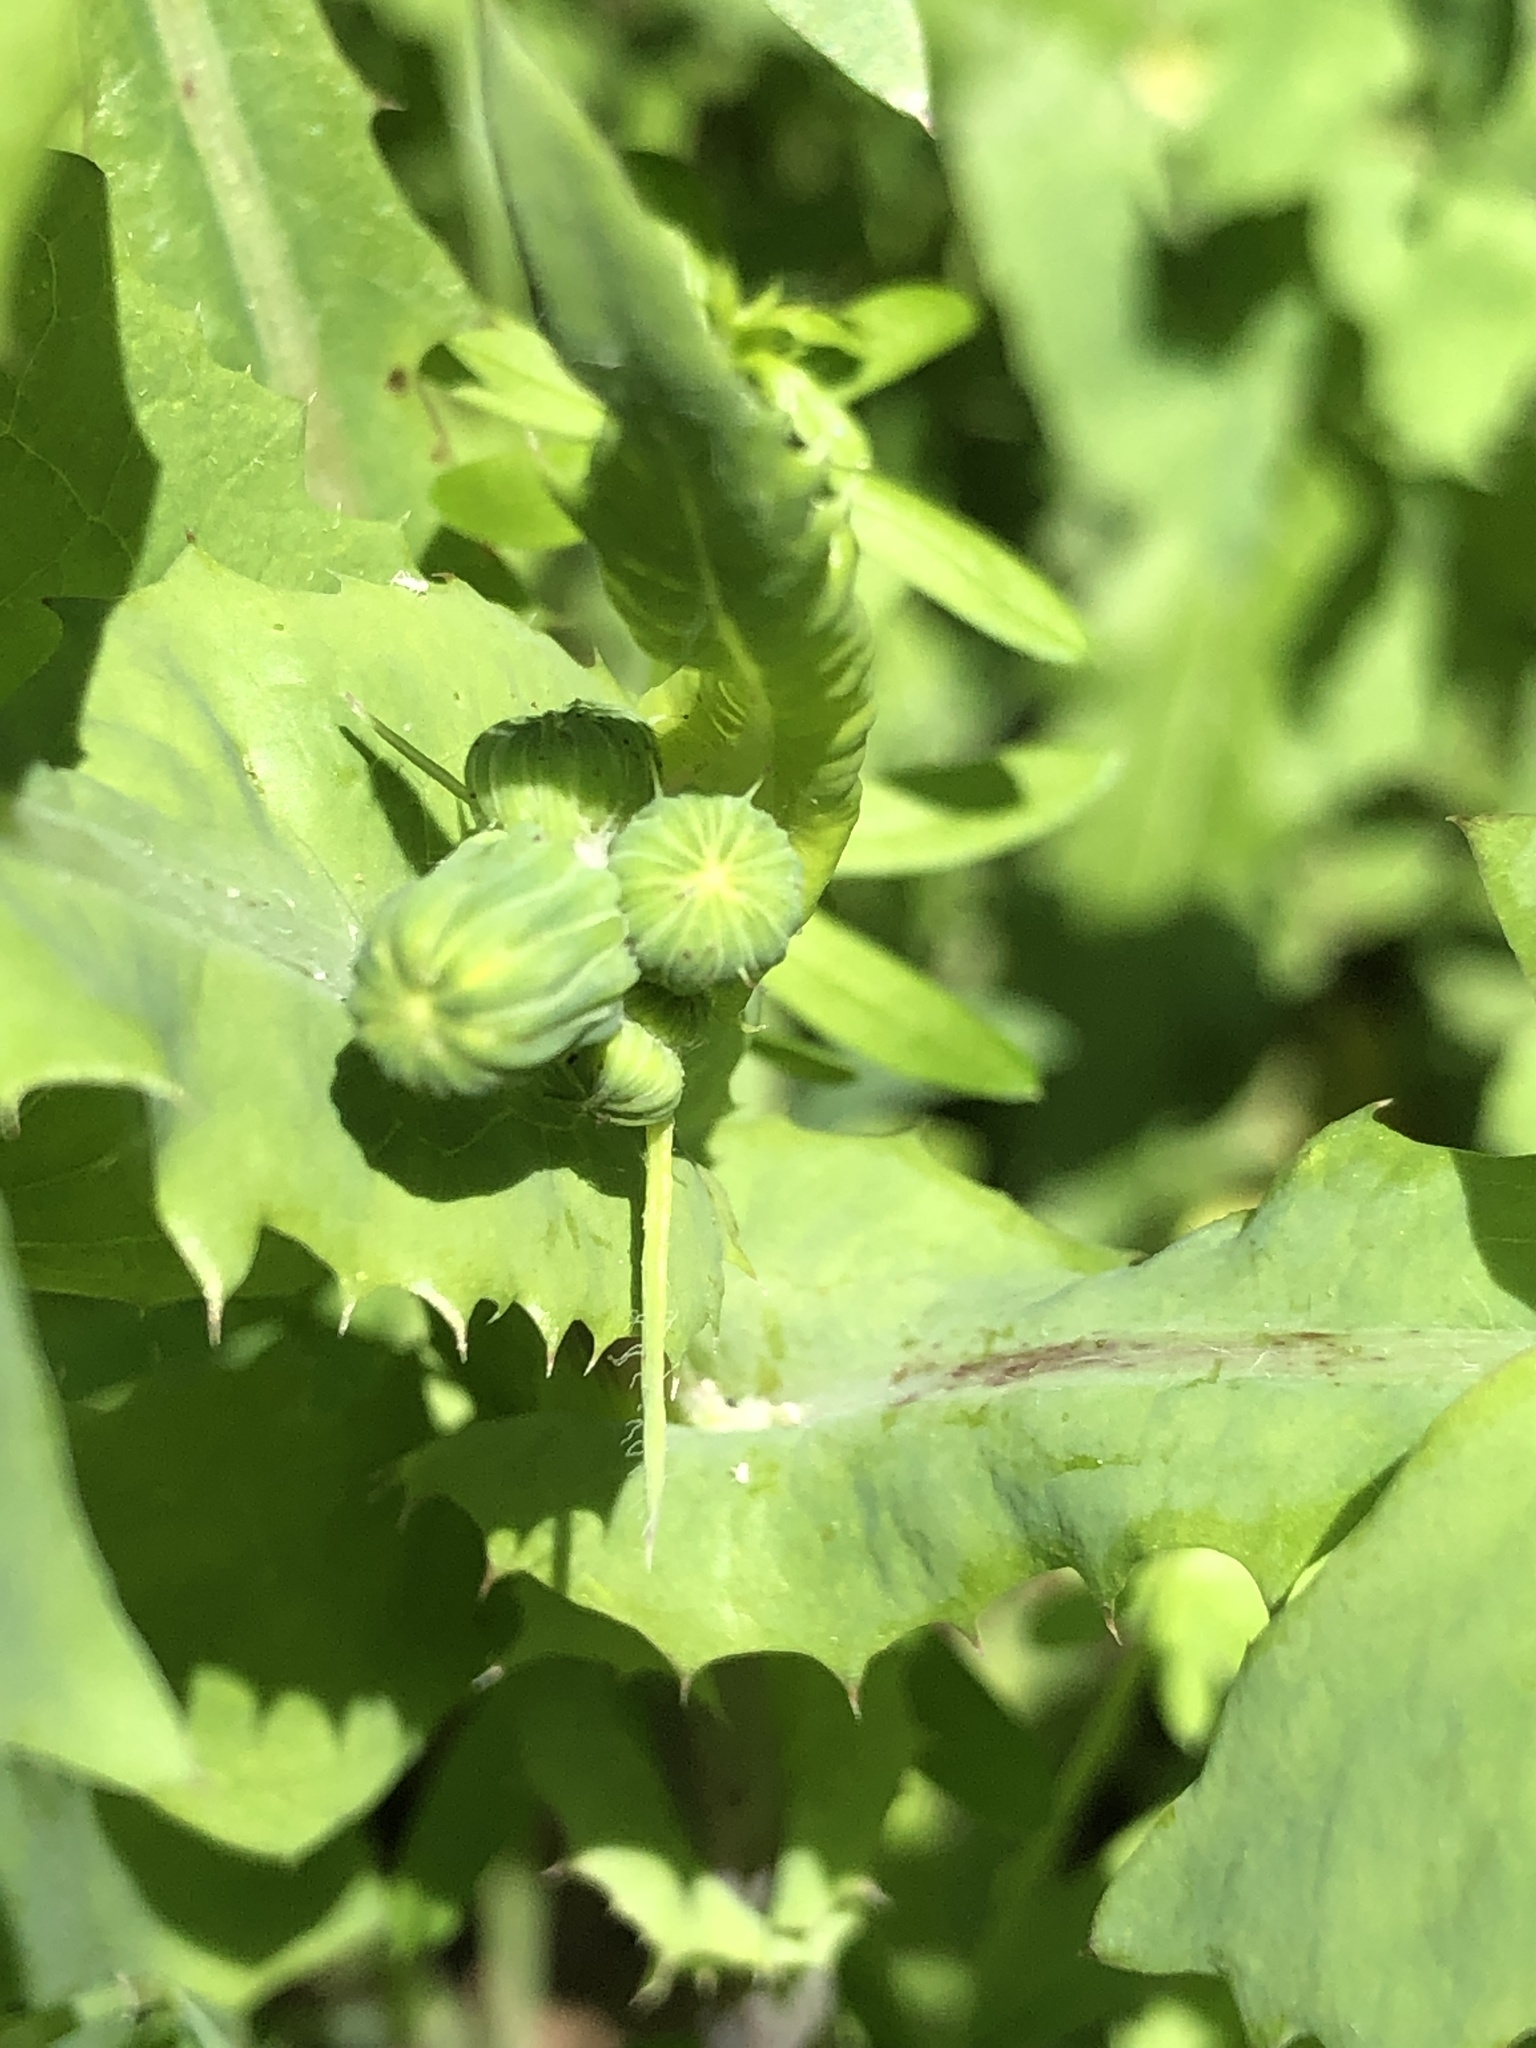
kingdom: Plantae
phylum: Tracheophyta
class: Magnoliopsida
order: Asterales
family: Asteraceae
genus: Sonchus
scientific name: Sonchus oleraceus
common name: Common sowthistle
